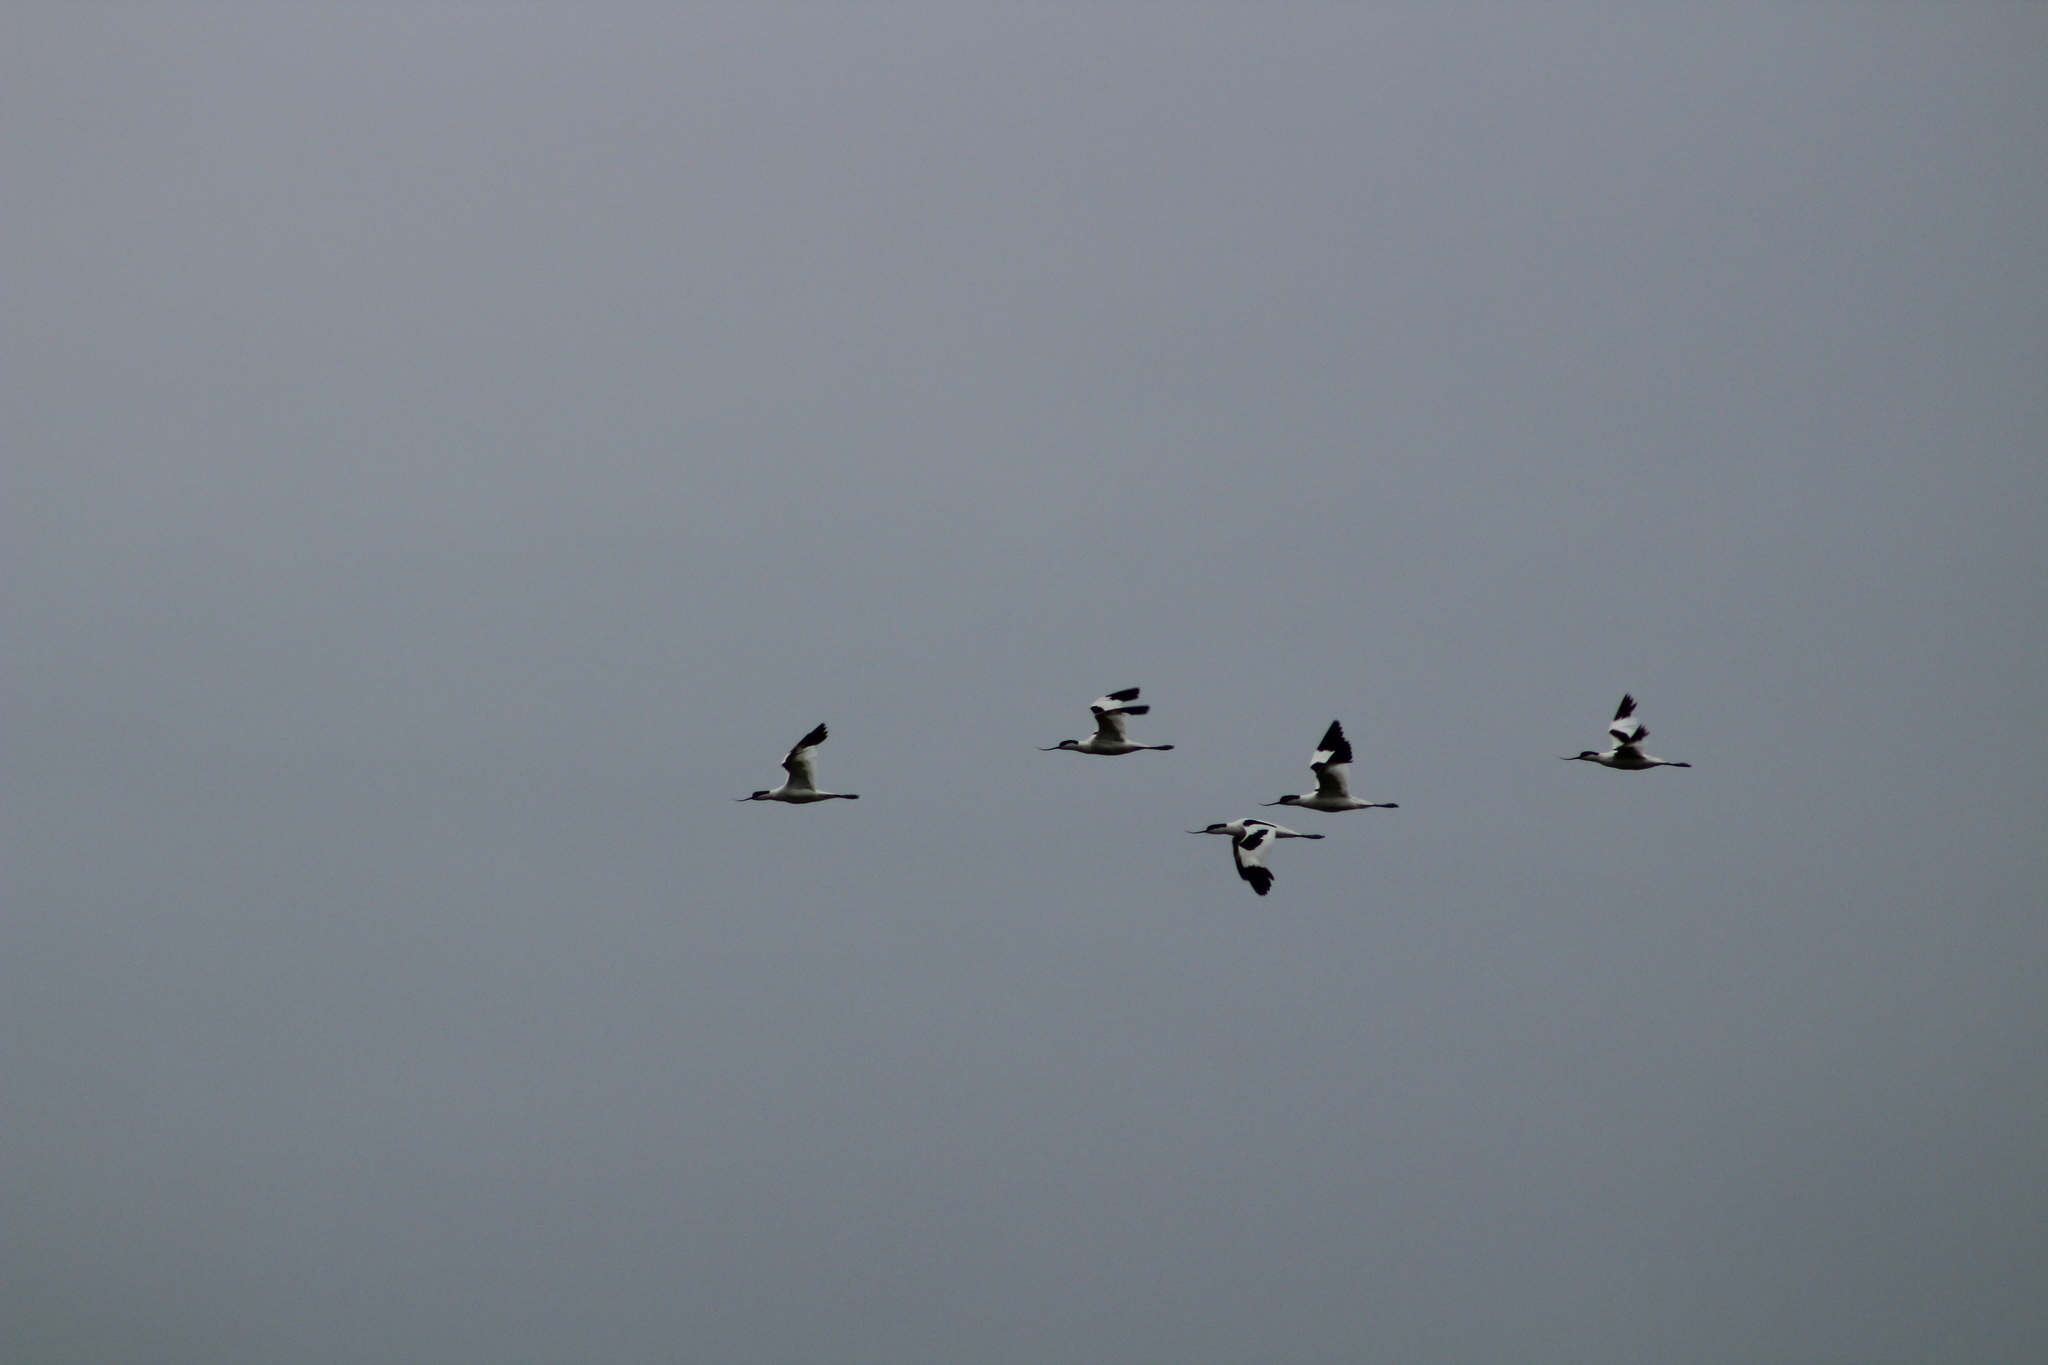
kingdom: Animalia
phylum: Chordata
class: Aves
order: Charadriiformes
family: Recurvirostridae
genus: Recurvirostra
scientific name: Recurvirostra avosetta
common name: Pied avocet
